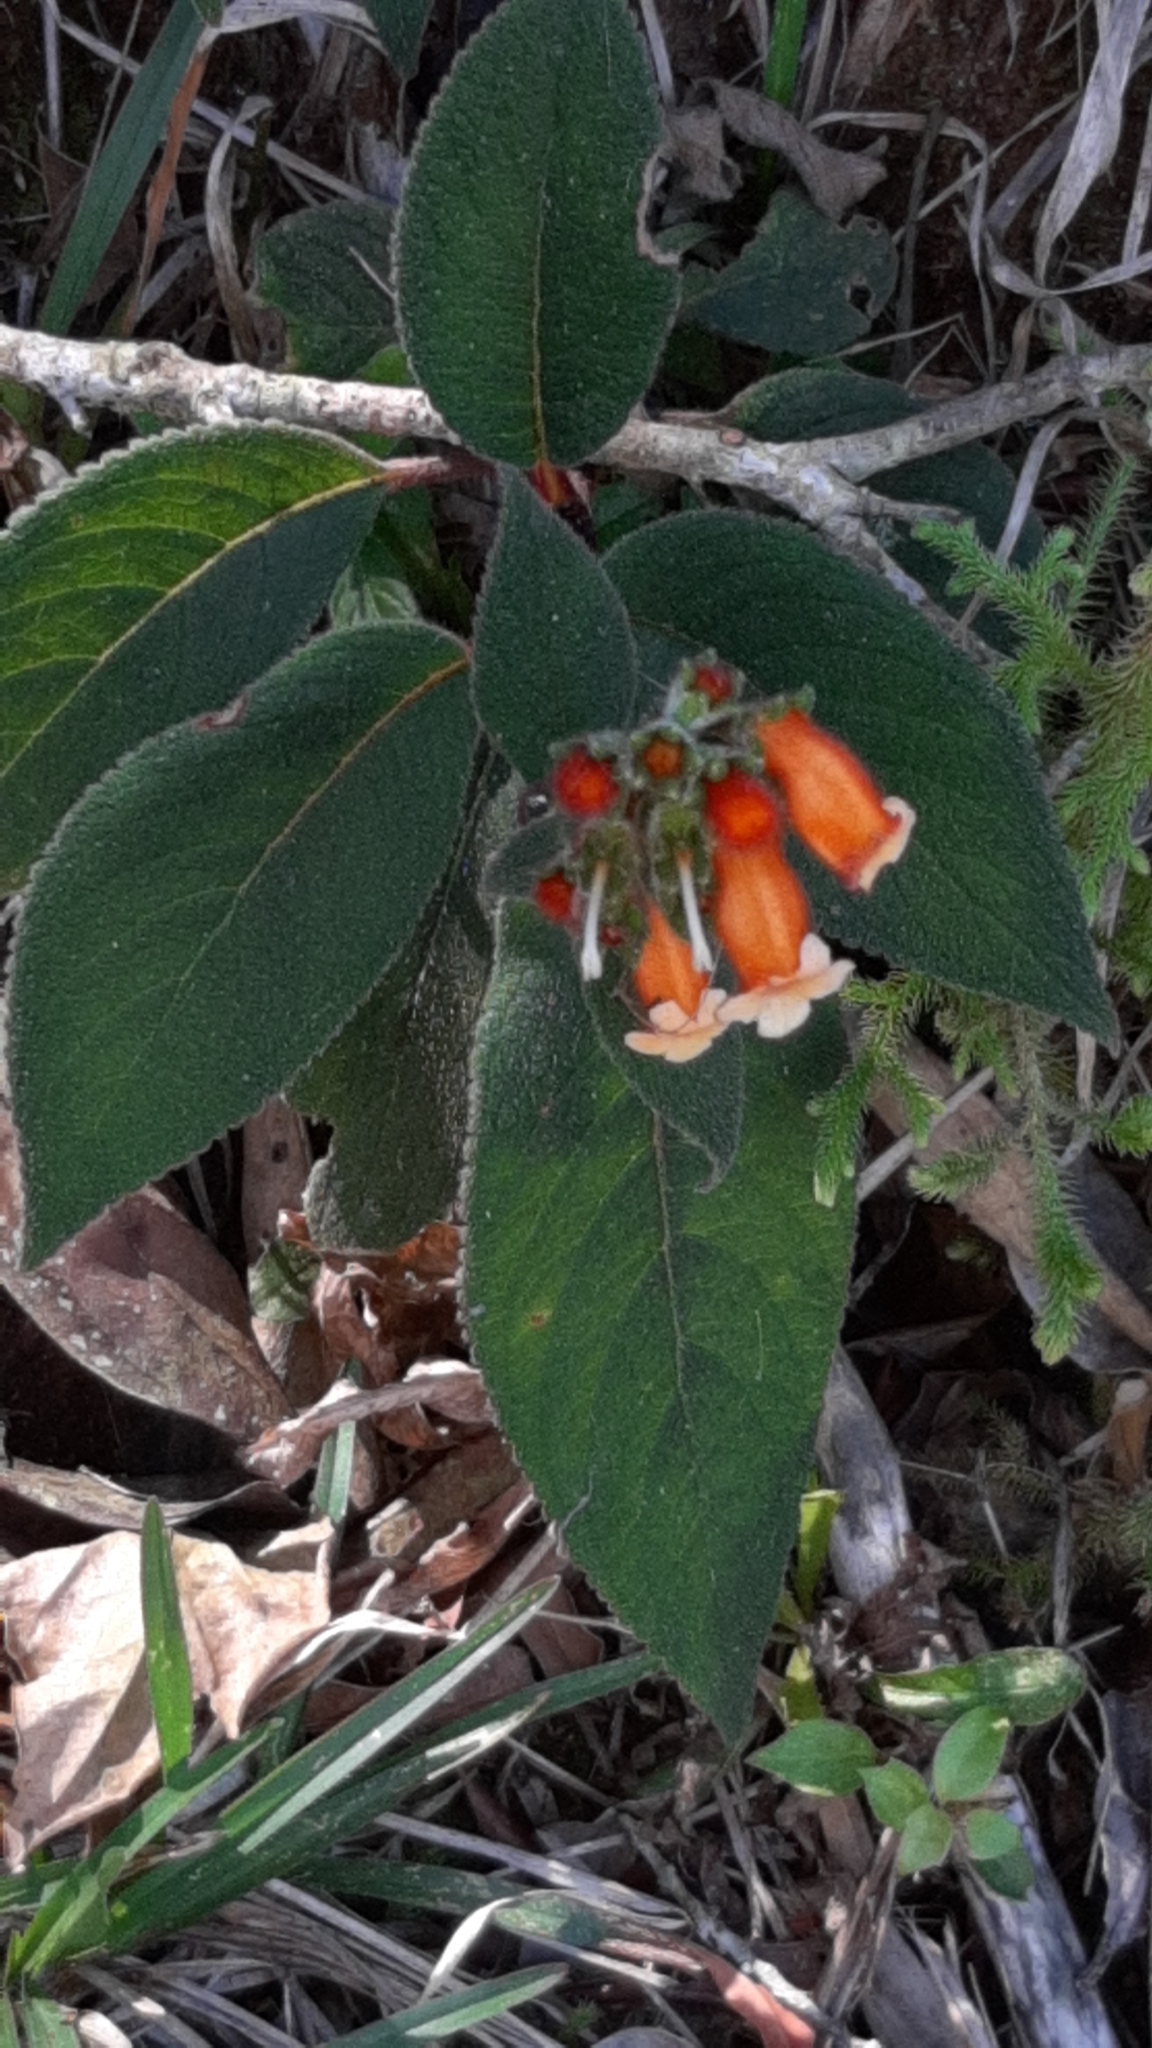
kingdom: Plantae
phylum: Tracheophyta
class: Magnoliopsida
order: Lamiales
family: Gesneriaceae
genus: Kohleria
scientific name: Kohleria spicata
